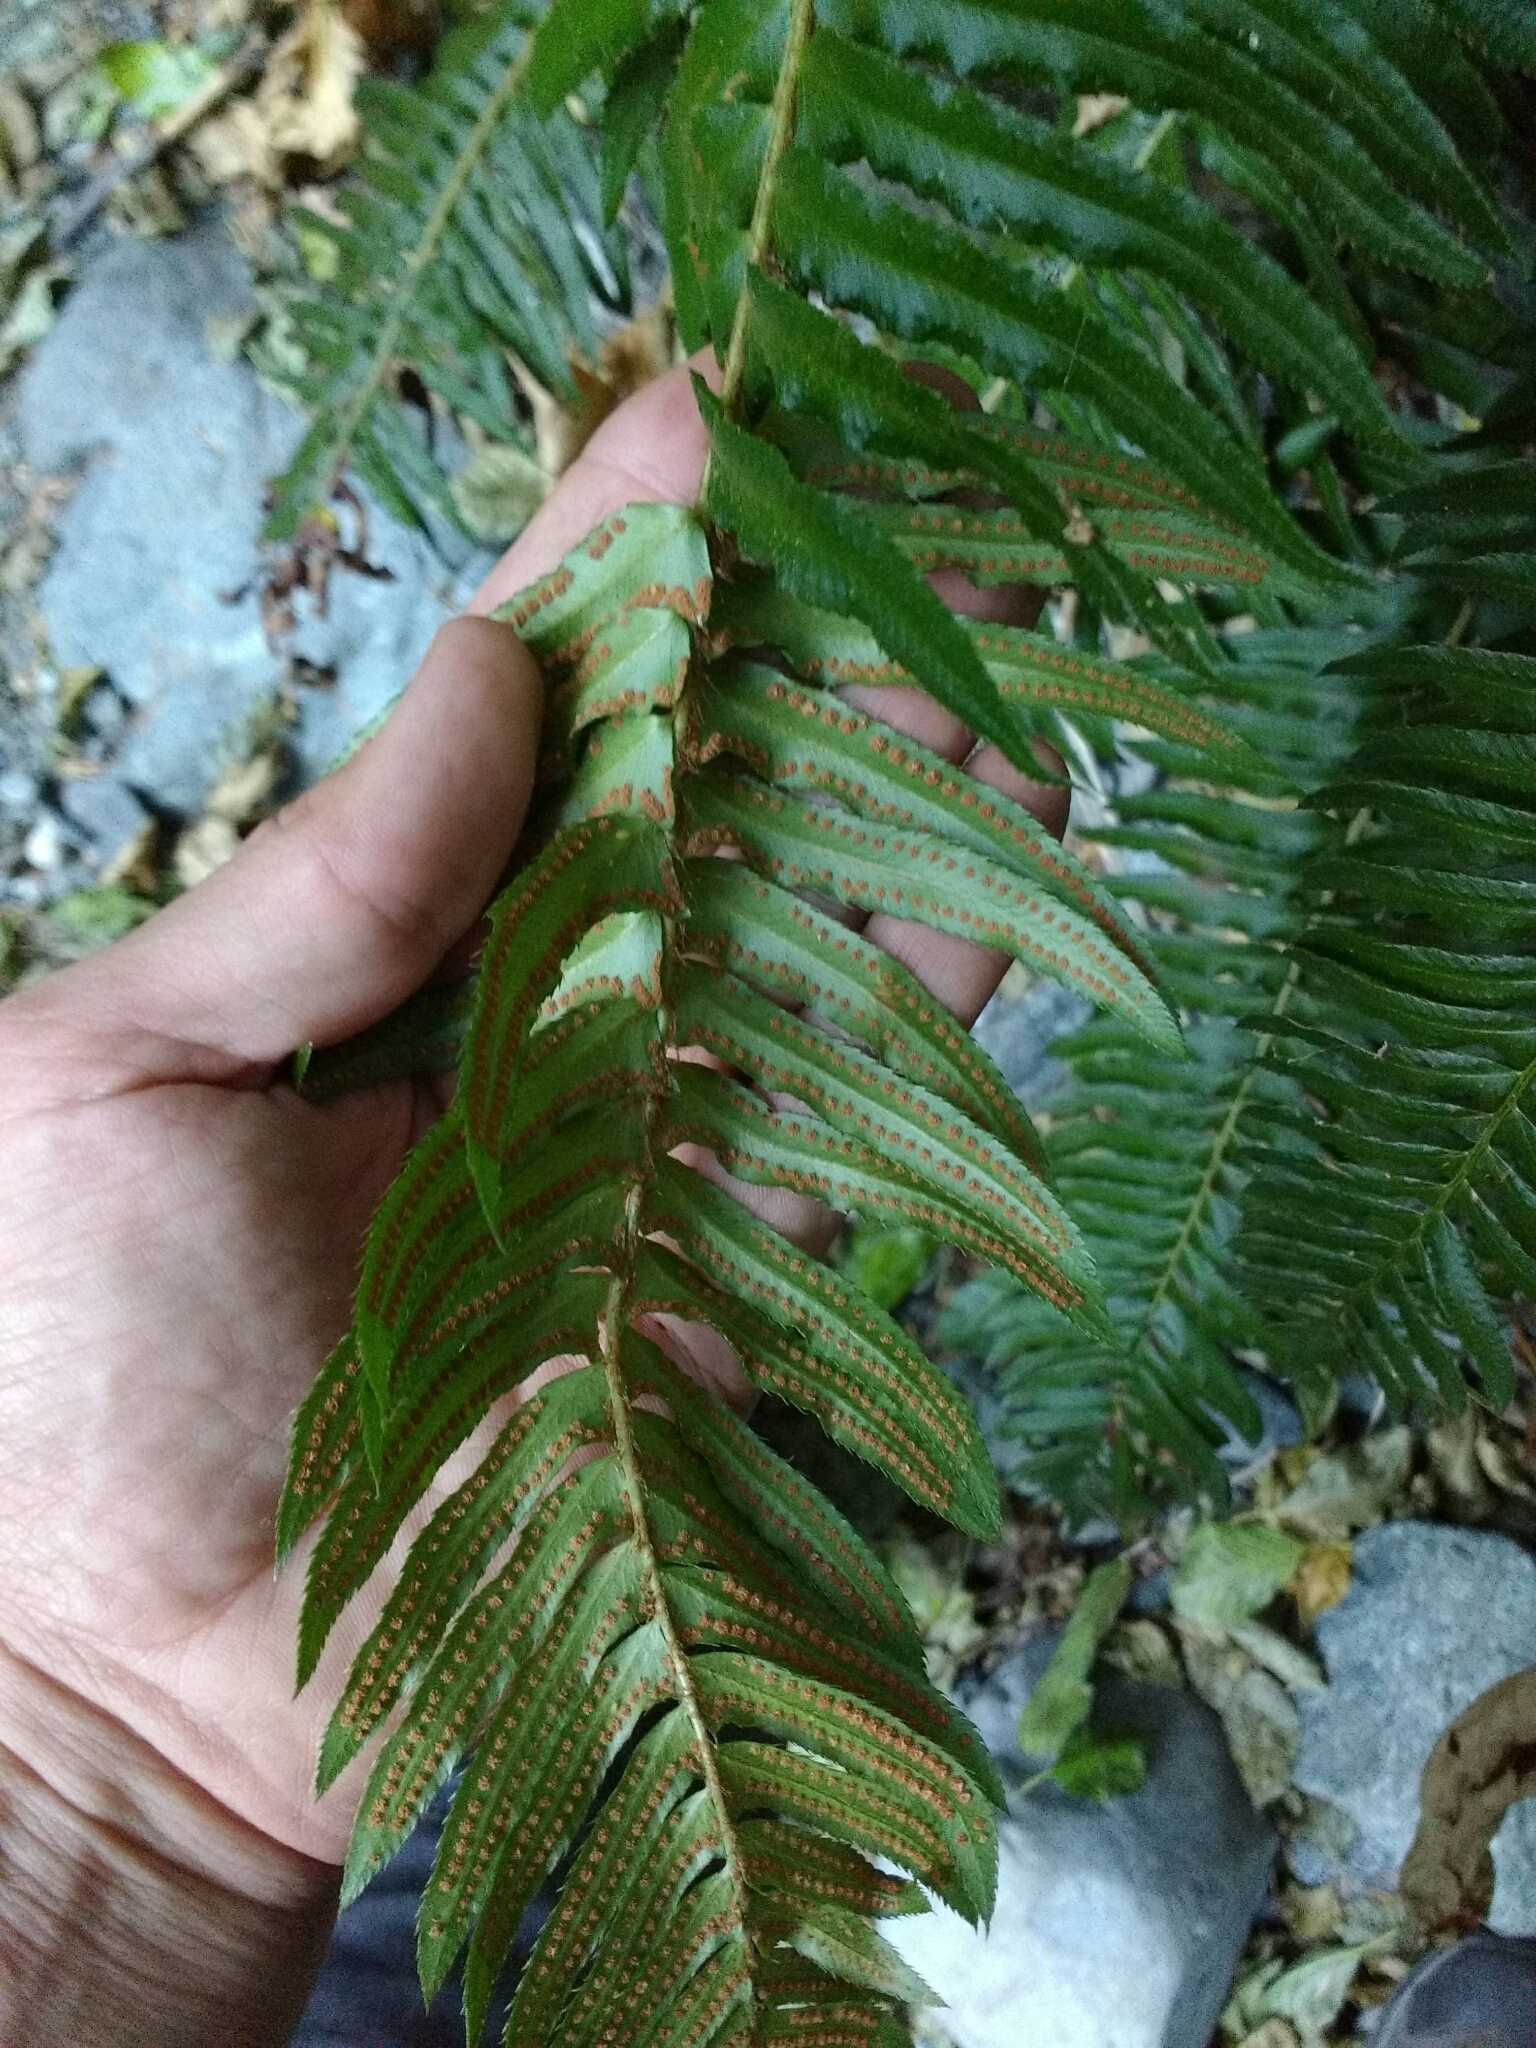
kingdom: Plantae
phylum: Tracheophyta
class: Polypodiopsida
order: Polypodiales
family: Dryopteridaceae
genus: Polystichum
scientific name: Polystichum munitum
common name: Western sword-fern
